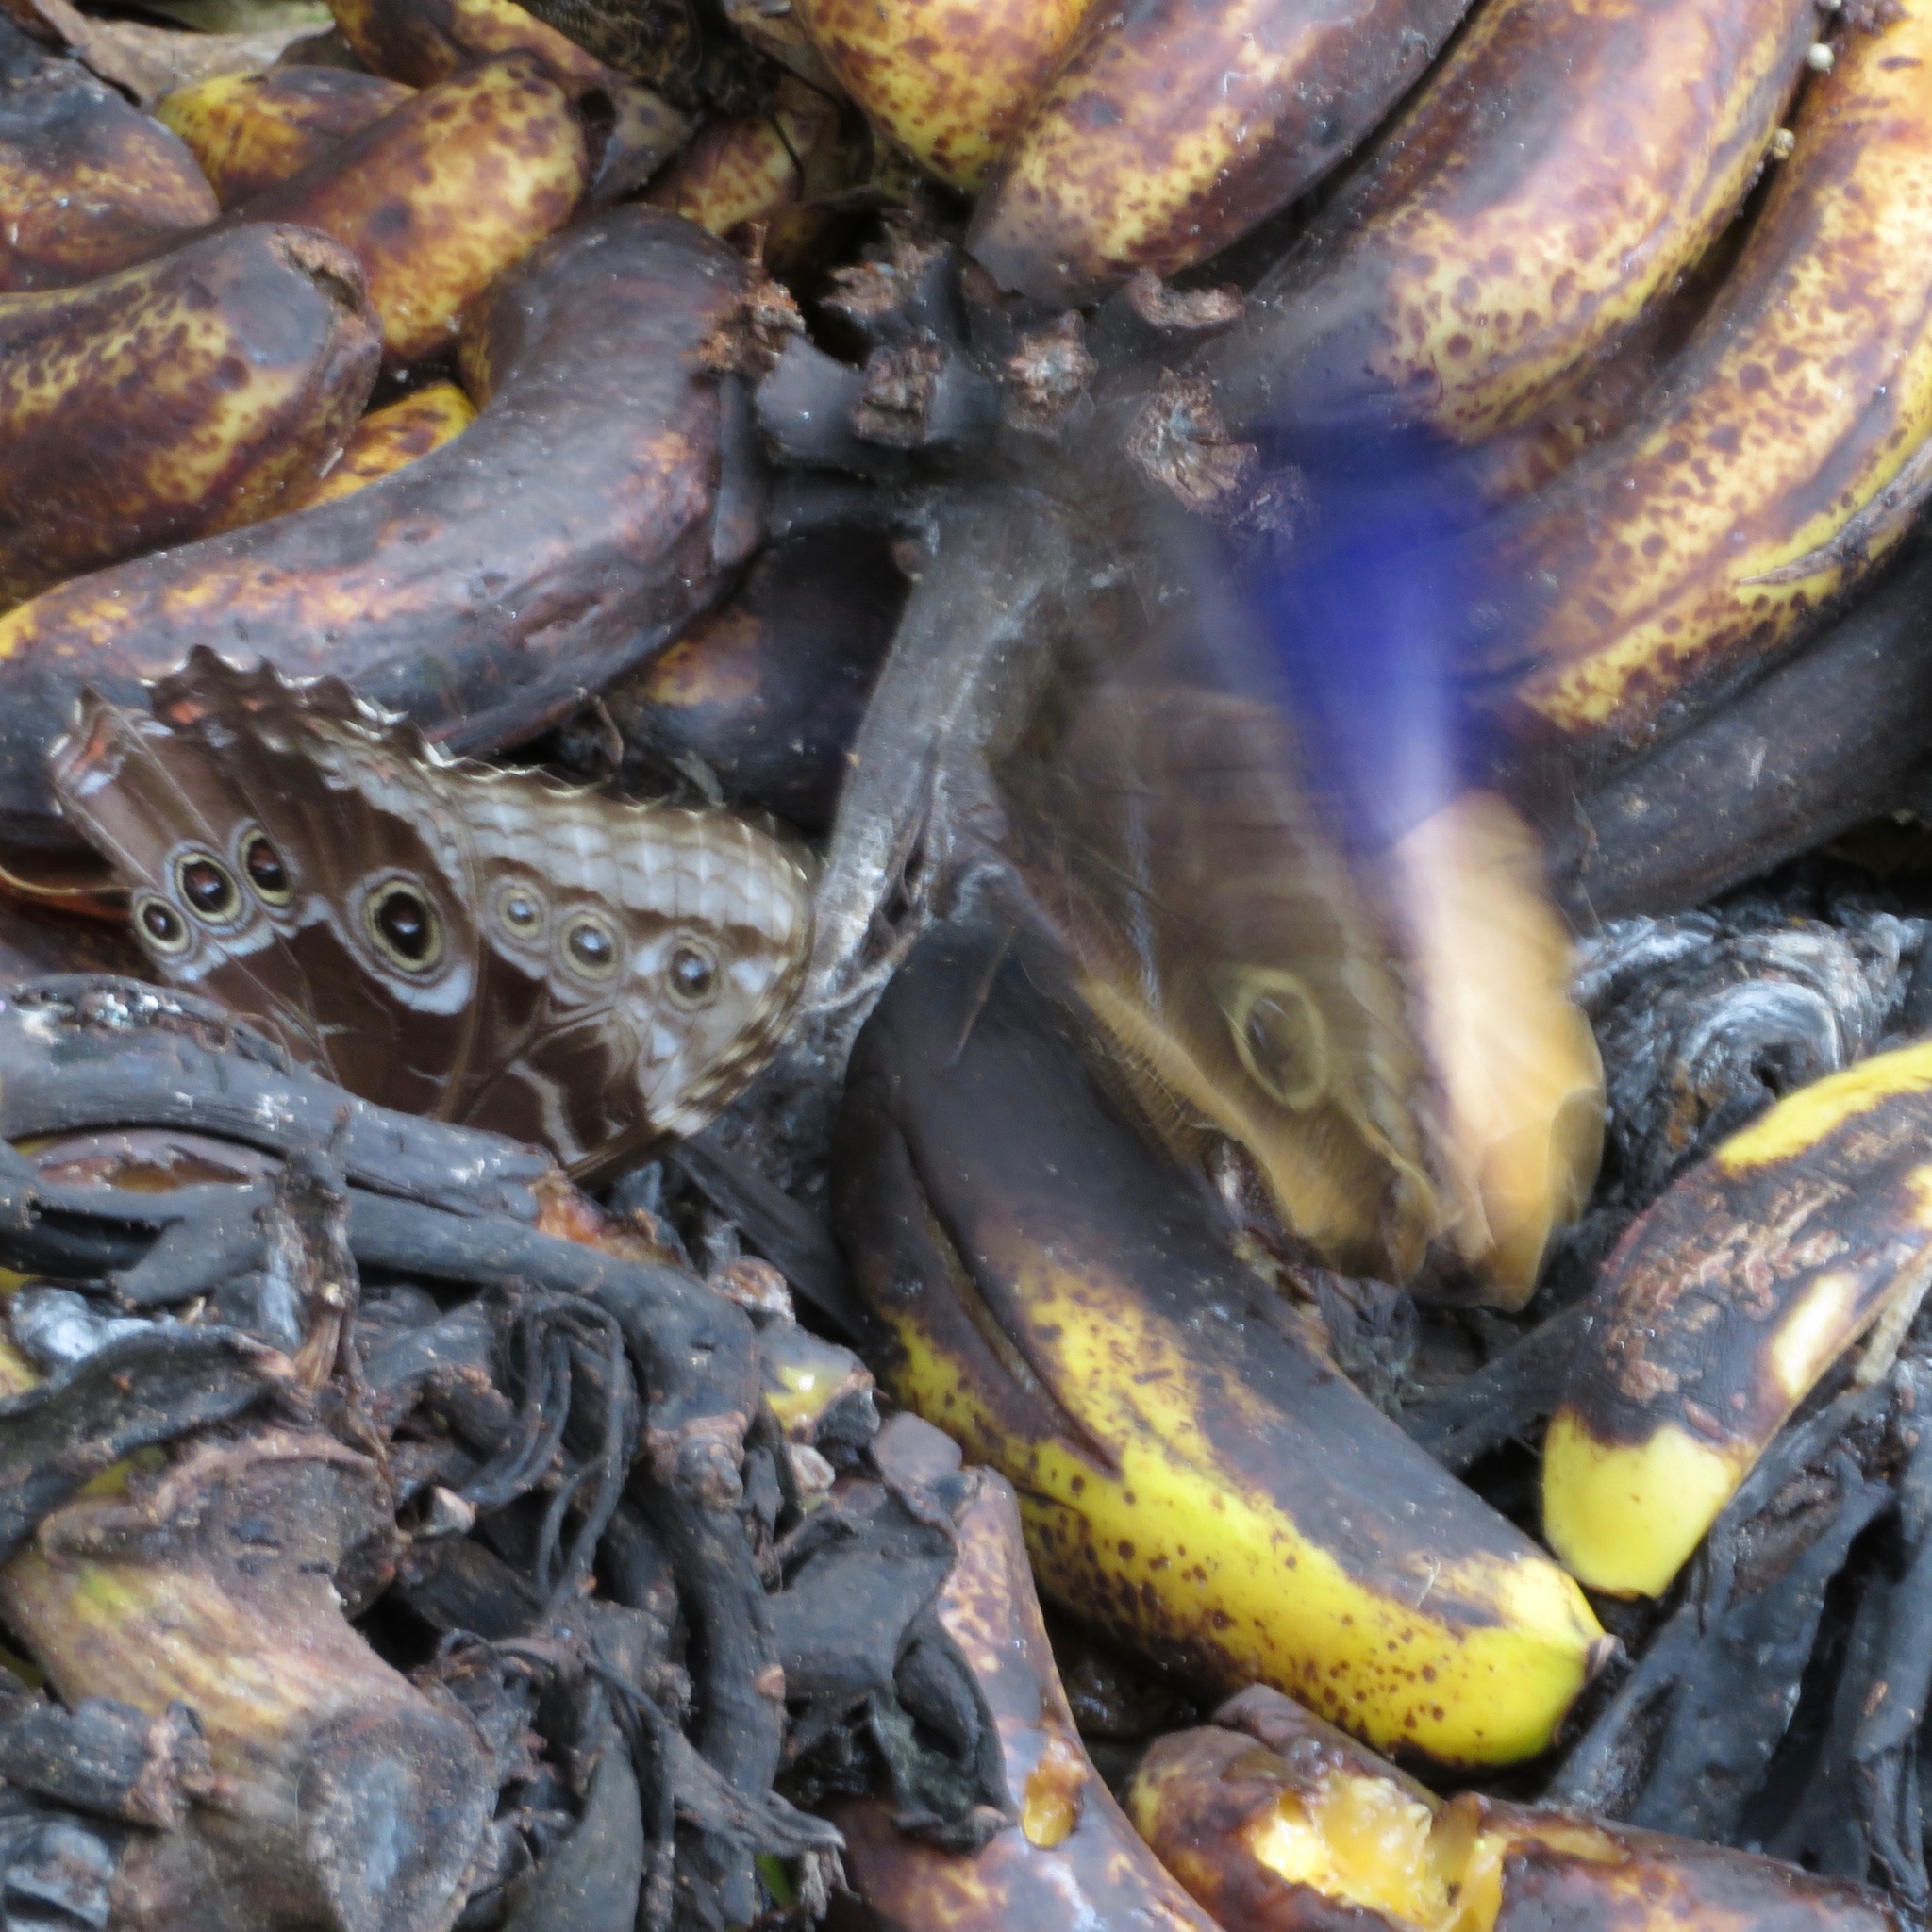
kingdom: Animalia
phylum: Arthropoda
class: Insecta
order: Lepidoptera
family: Nymphalidae
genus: Caligo
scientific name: Caligo atreus
